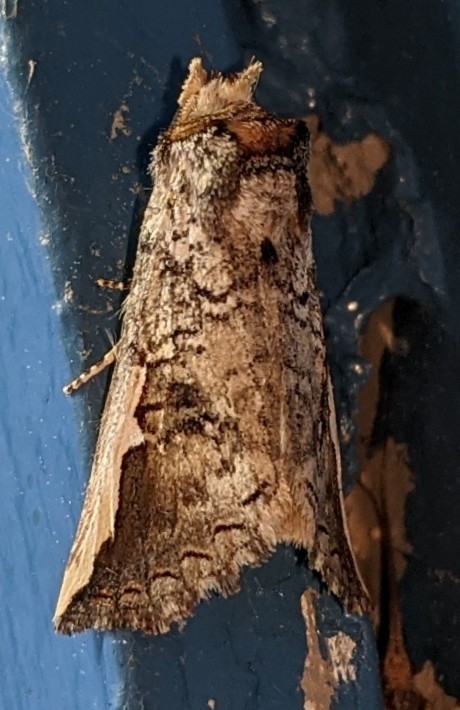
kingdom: Animalia
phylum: Arthropoda
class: Insecta
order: Lepidoptera
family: Notodontidae
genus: Symmerista
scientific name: Symmerista albifrons
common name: White-headed prominent
